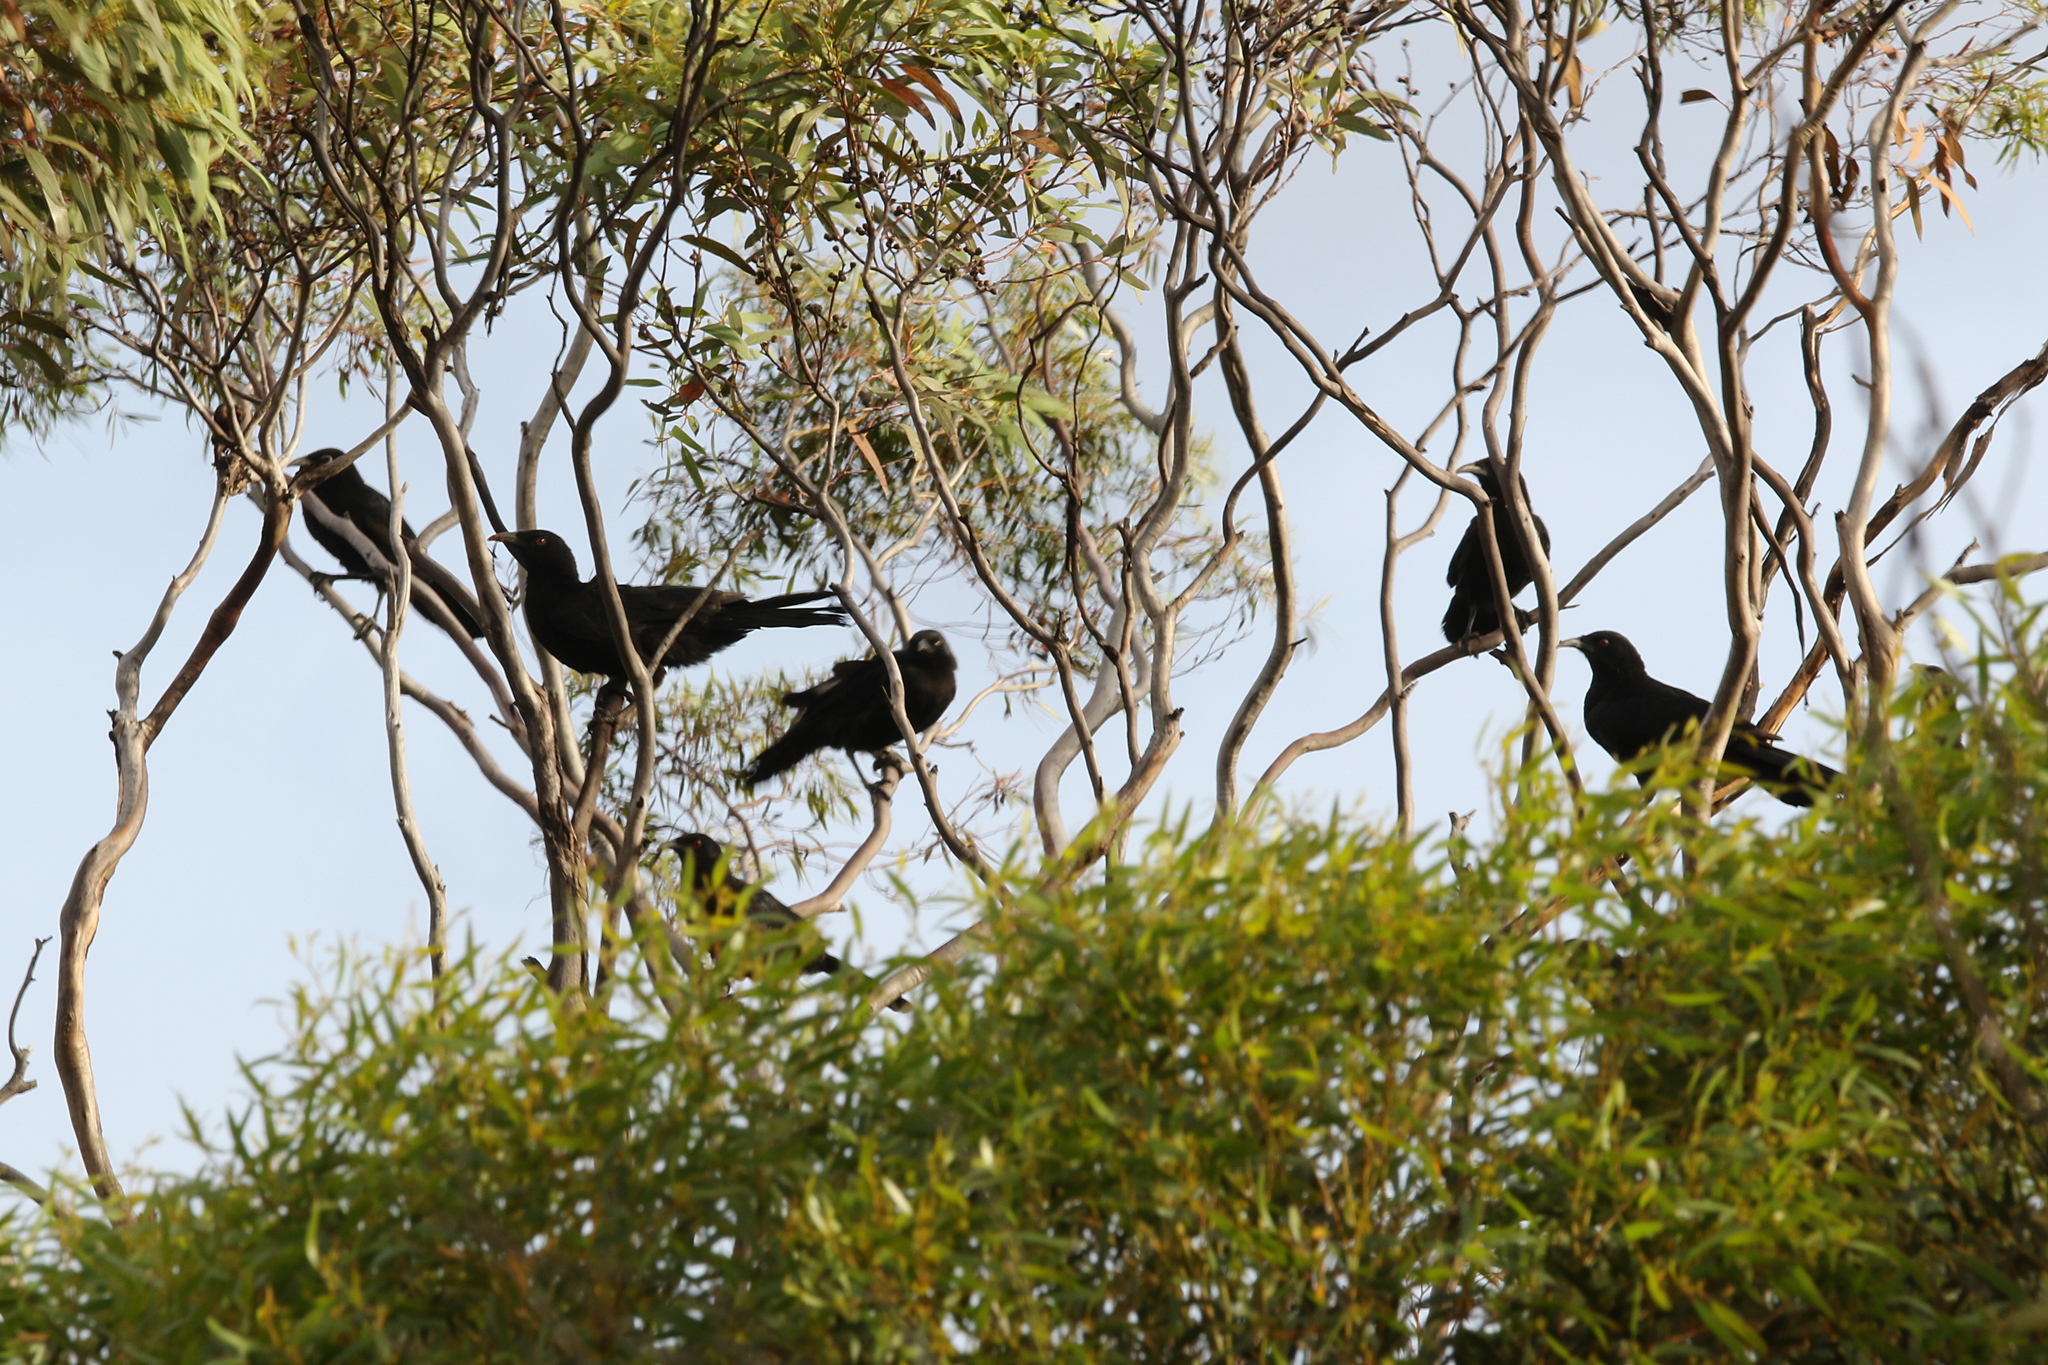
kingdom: Animalia
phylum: Chordata
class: Aves
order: Passeriformes
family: Corcoracidae
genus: Corcorax
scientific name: Corcorax melanoramphos
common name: White-winged chough
